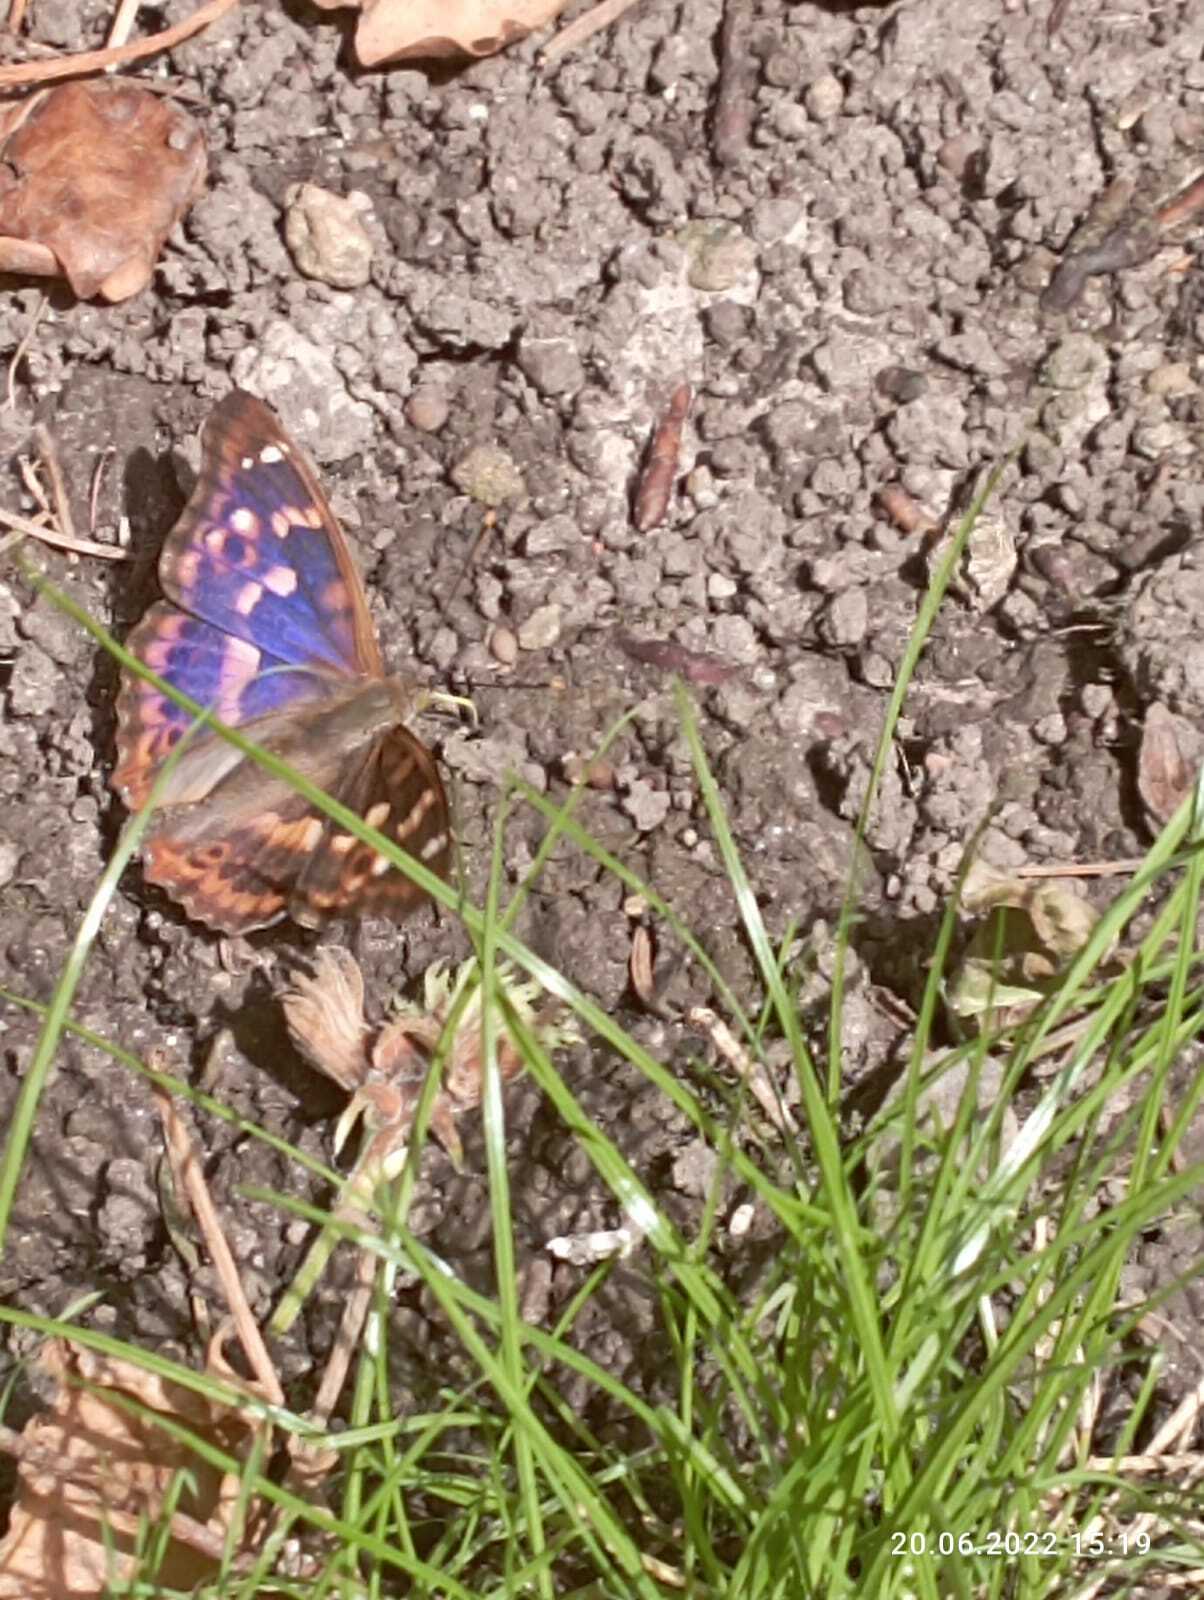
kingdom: Animalia
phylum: Arthropoda
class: Insecta
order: Lepidoptera
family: Nymphalidae
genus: Apatura
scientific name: Apatura ilia
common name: Lesser purple emperor
